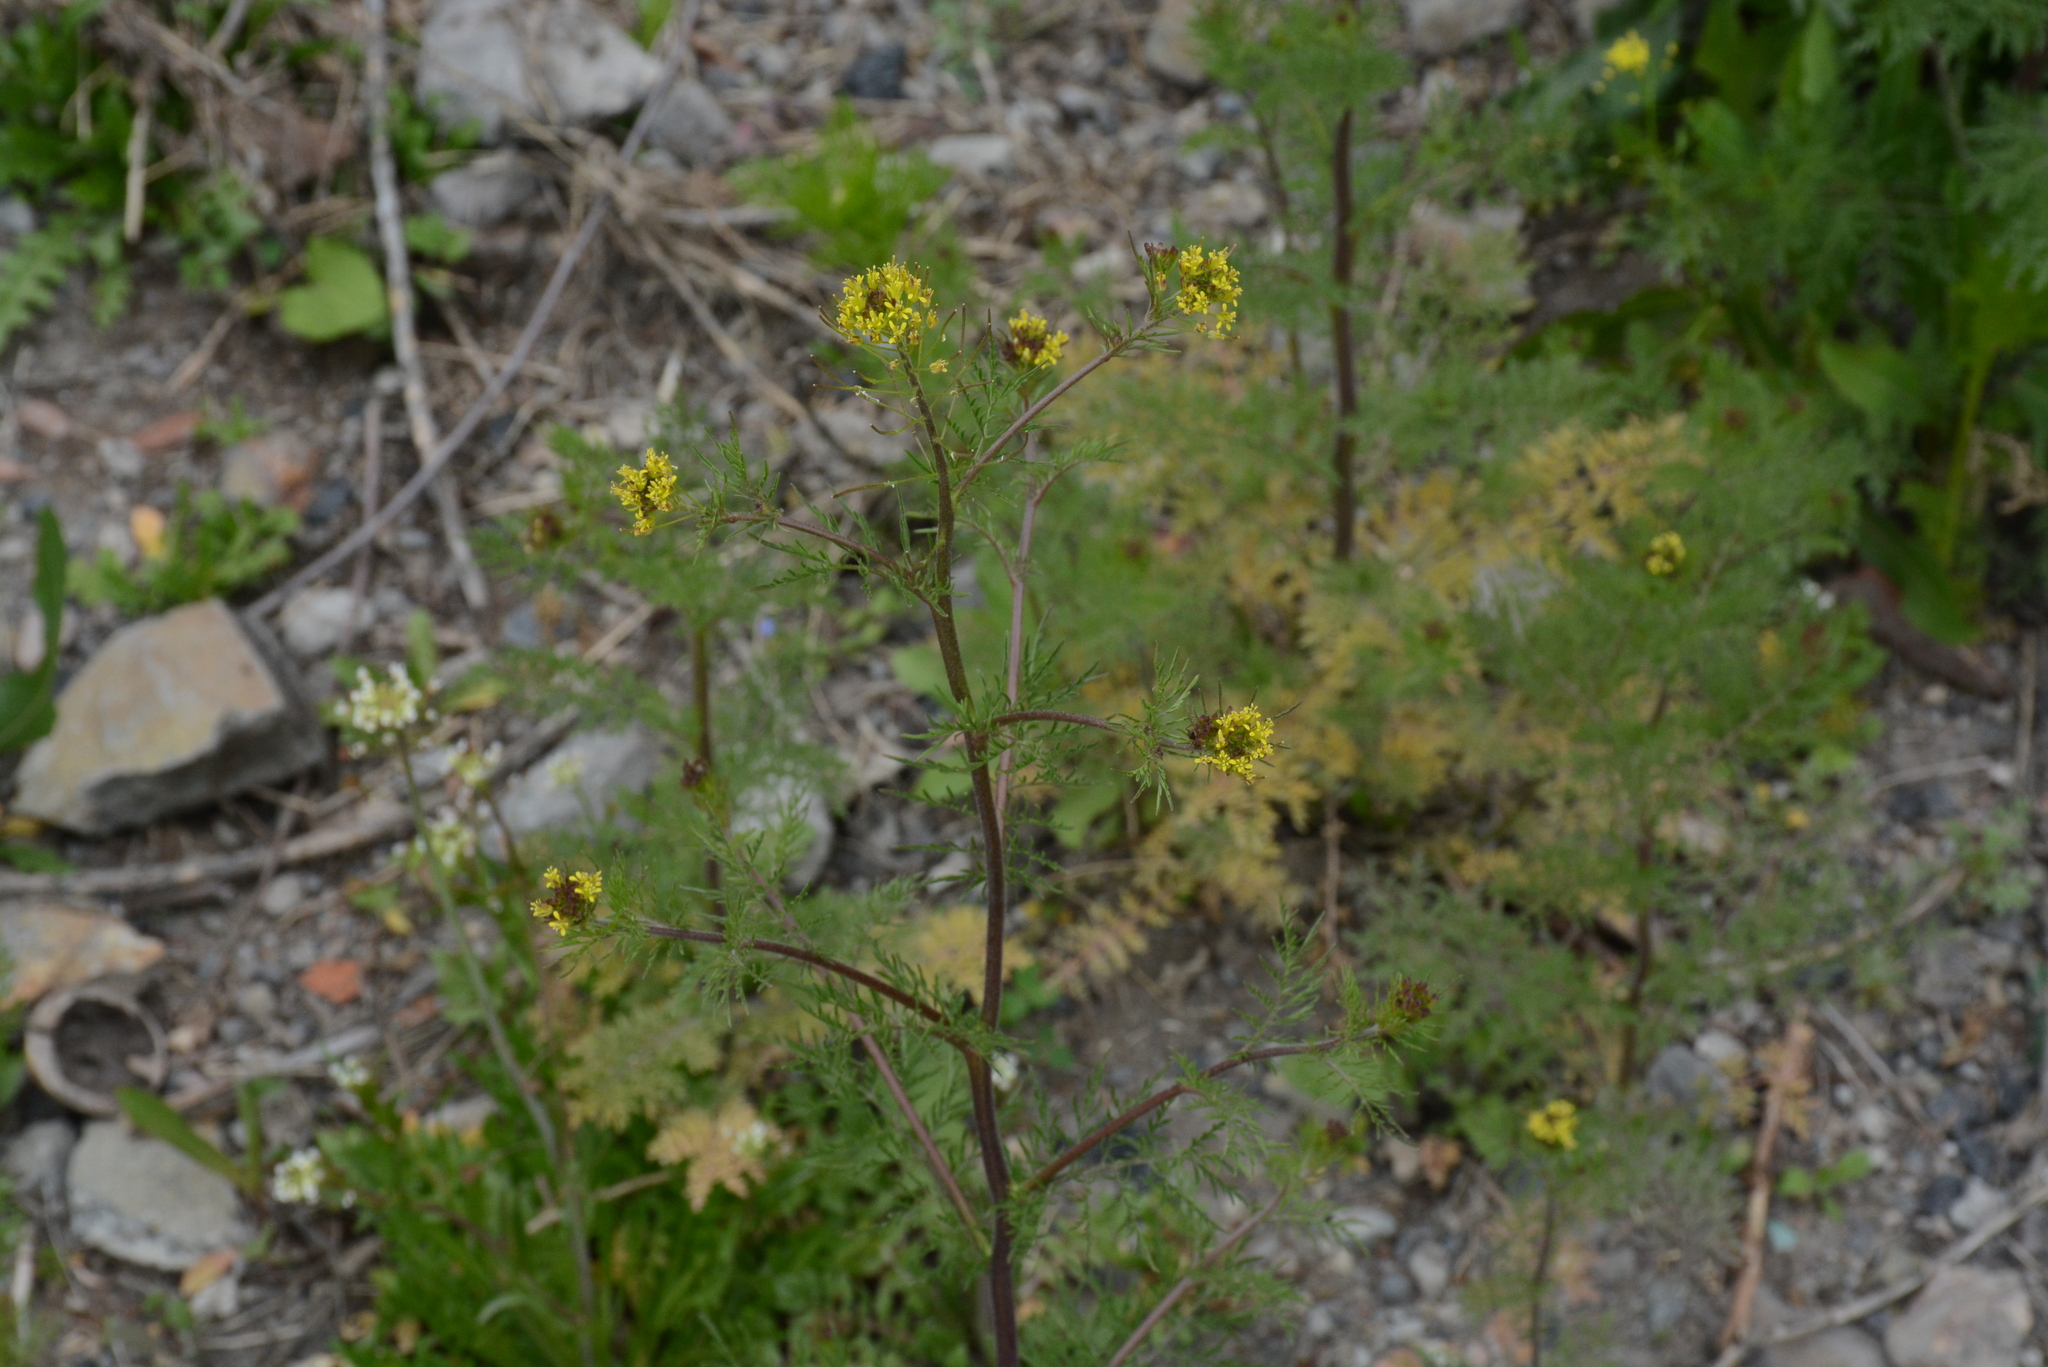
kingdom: Plantae
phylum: Tracheophyta
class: Magnoliopsida
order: Brassicales
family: Brassicaceae
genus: Descurainia
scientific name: Descurainia sophia
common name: Flixweed
